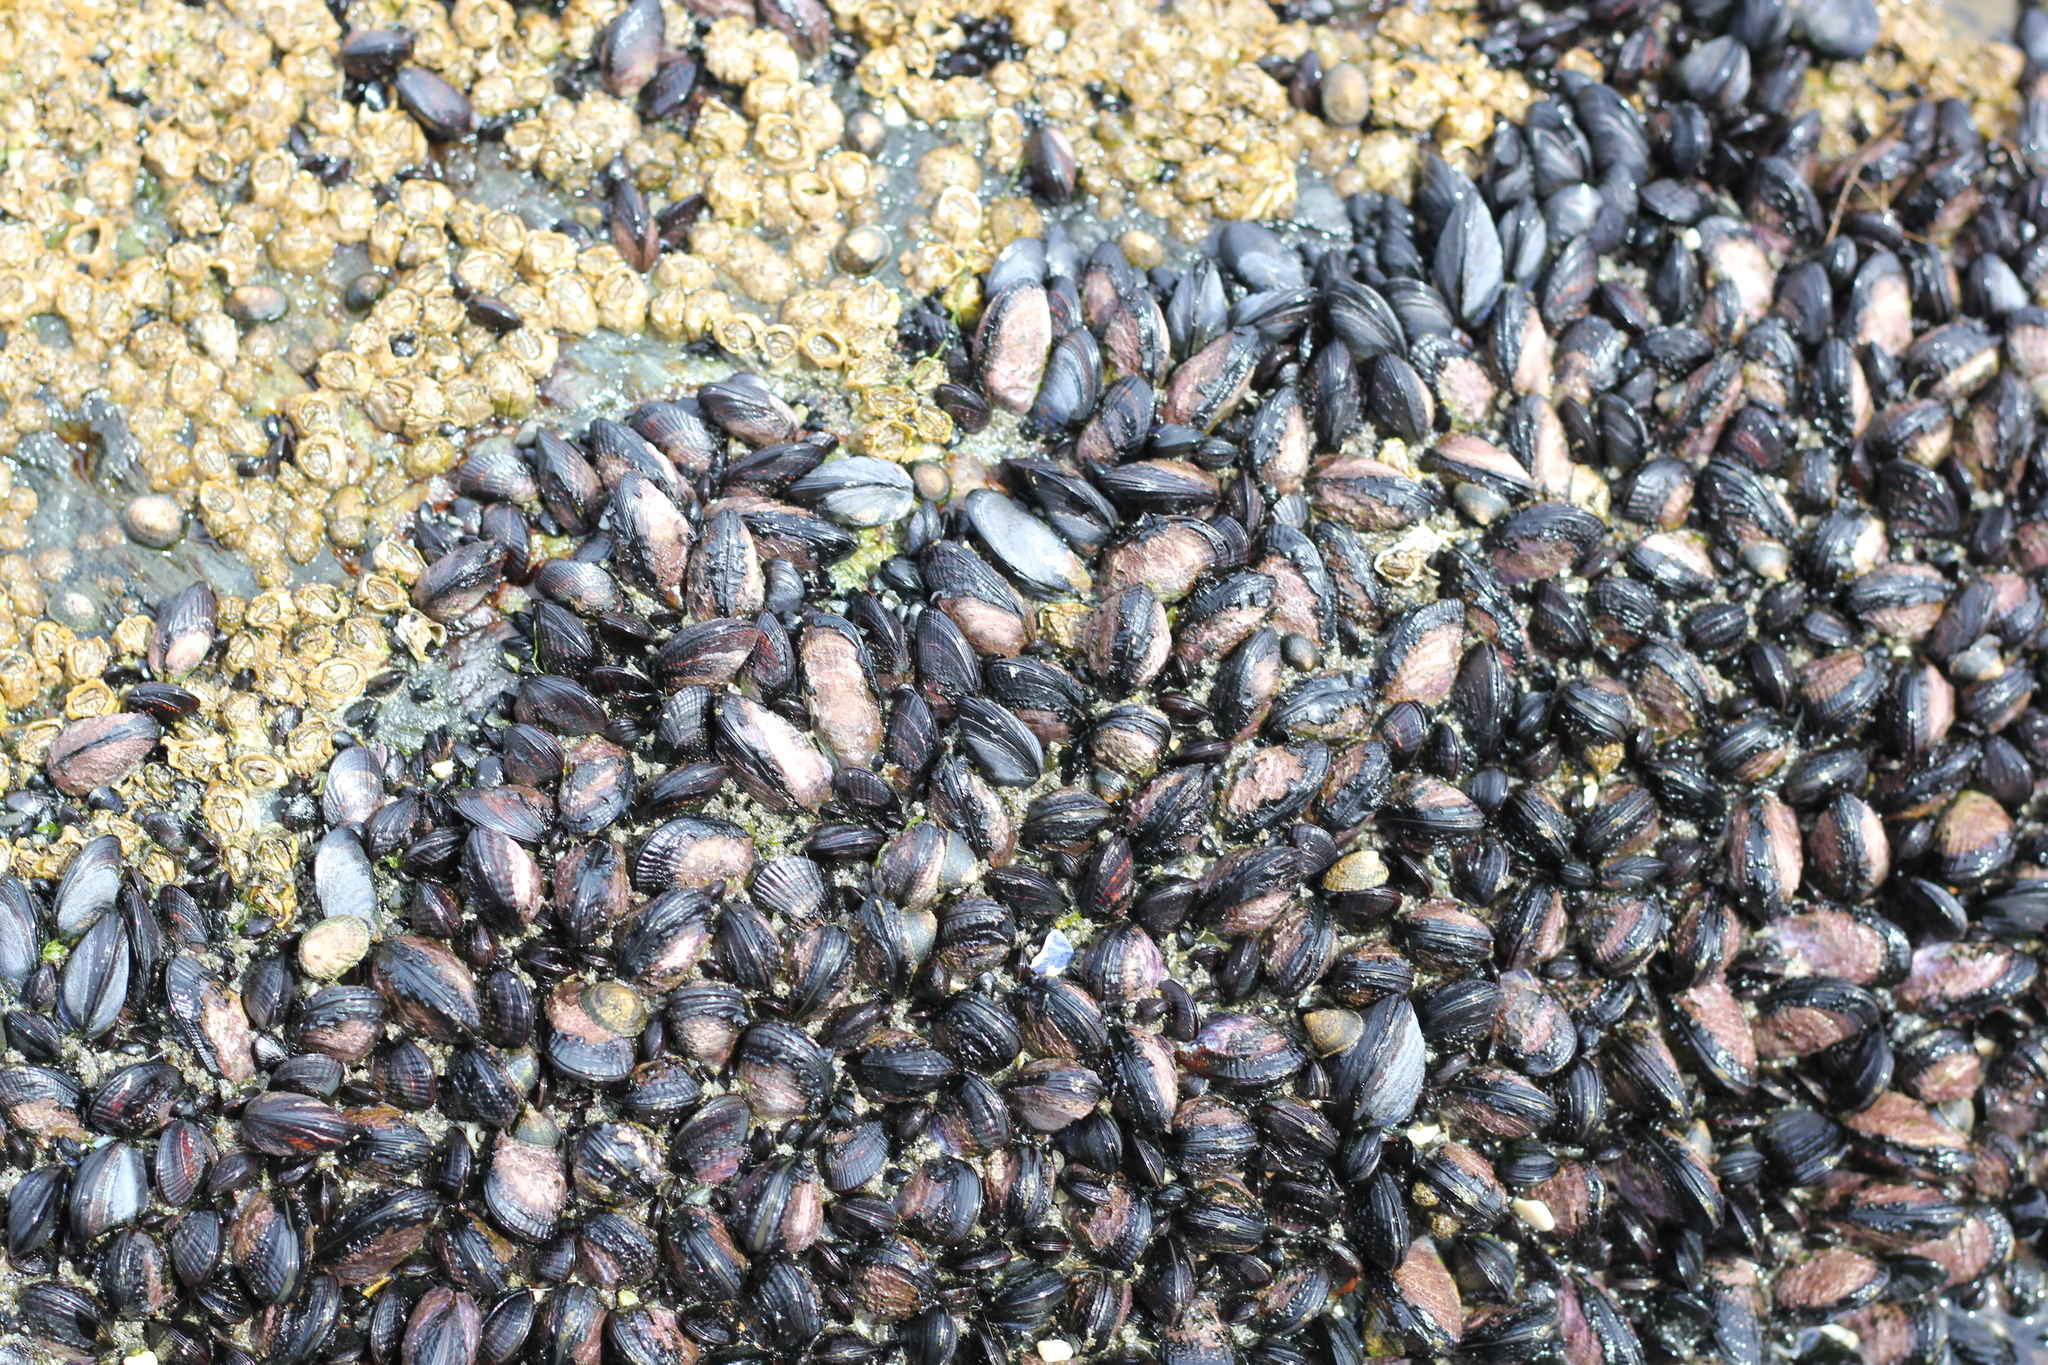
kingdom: Animalia
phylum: Mollusca
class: Bivalvia
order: Mytilida
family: Mytilidae
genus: Perumytilus
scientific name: Perumytilus purpuratus
